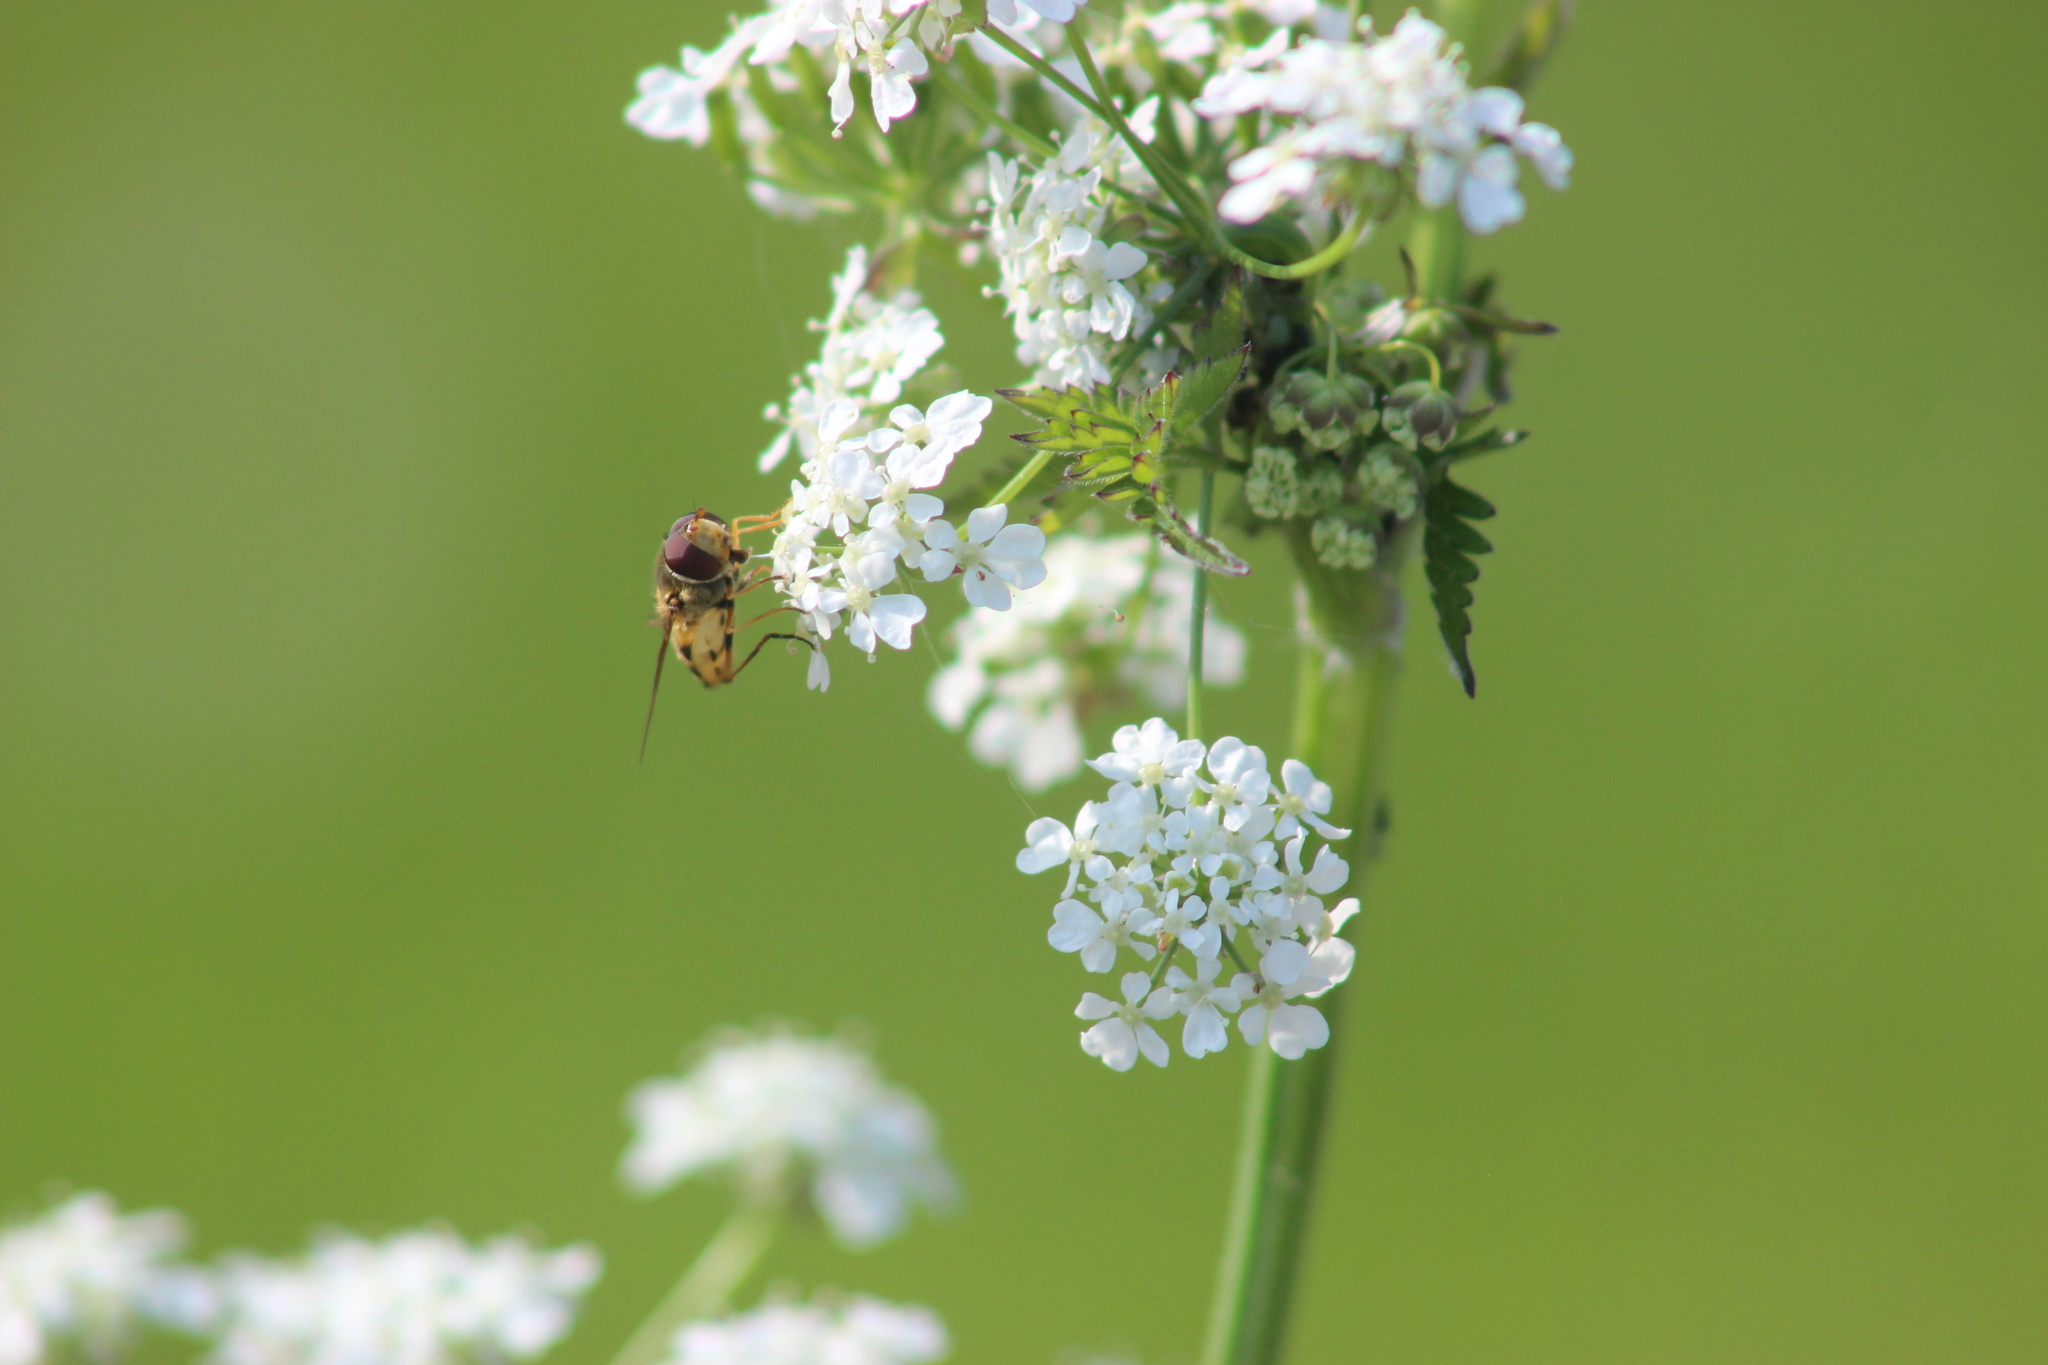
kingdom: Plantae
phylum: Tracheophyta
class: Magnoliopsida
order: Apiales
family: Apiaceae
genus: Anthriscus
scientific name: Anthriscus sylvestris
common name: Cow parsley
